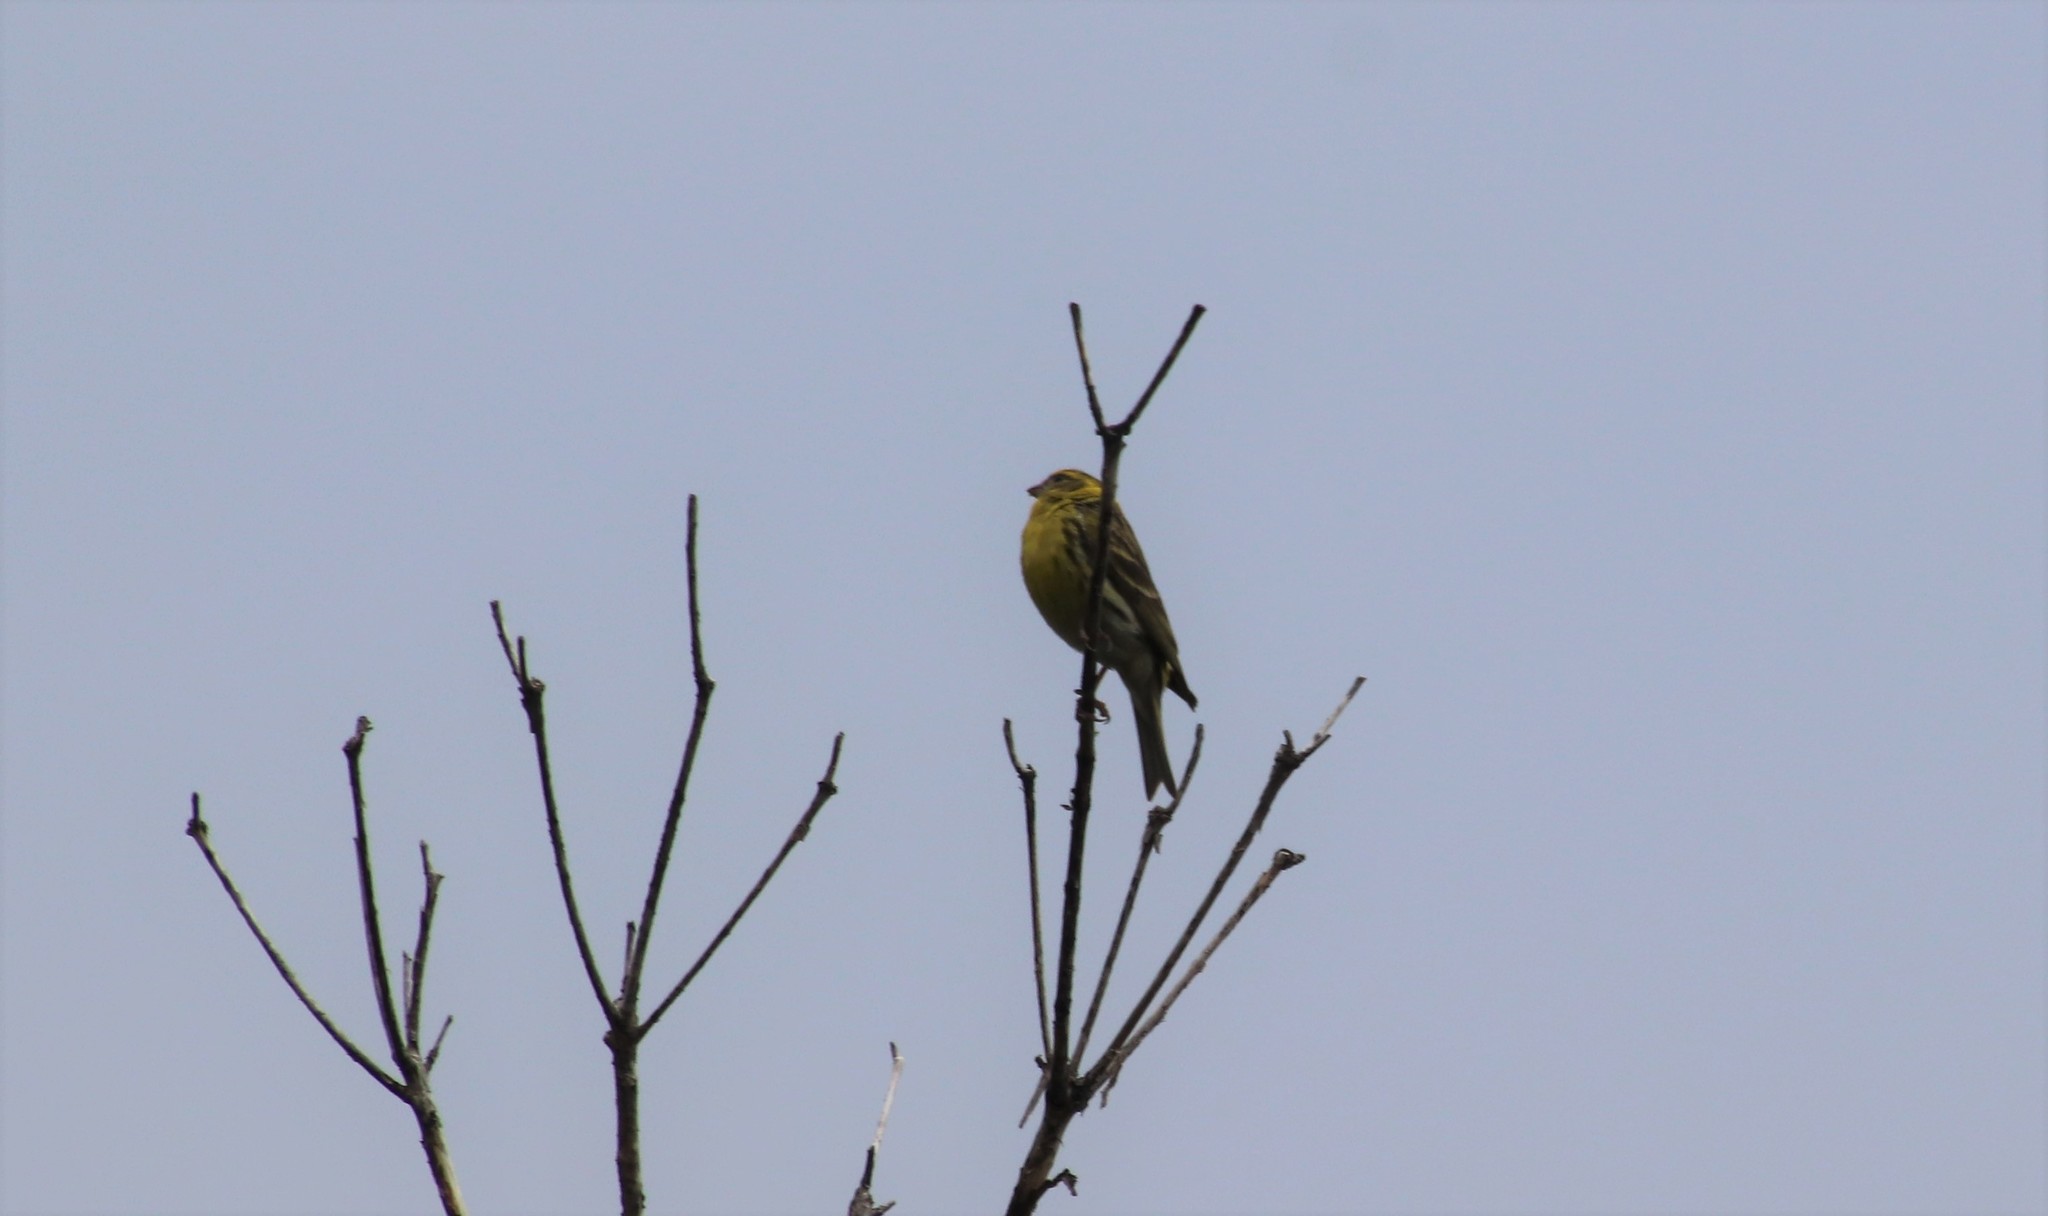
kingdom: Animalia
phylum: Chordata
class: Aves
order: Passeriformes
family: Fringillidae
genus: Serinus
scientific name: Serinus serinus
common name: European serin
